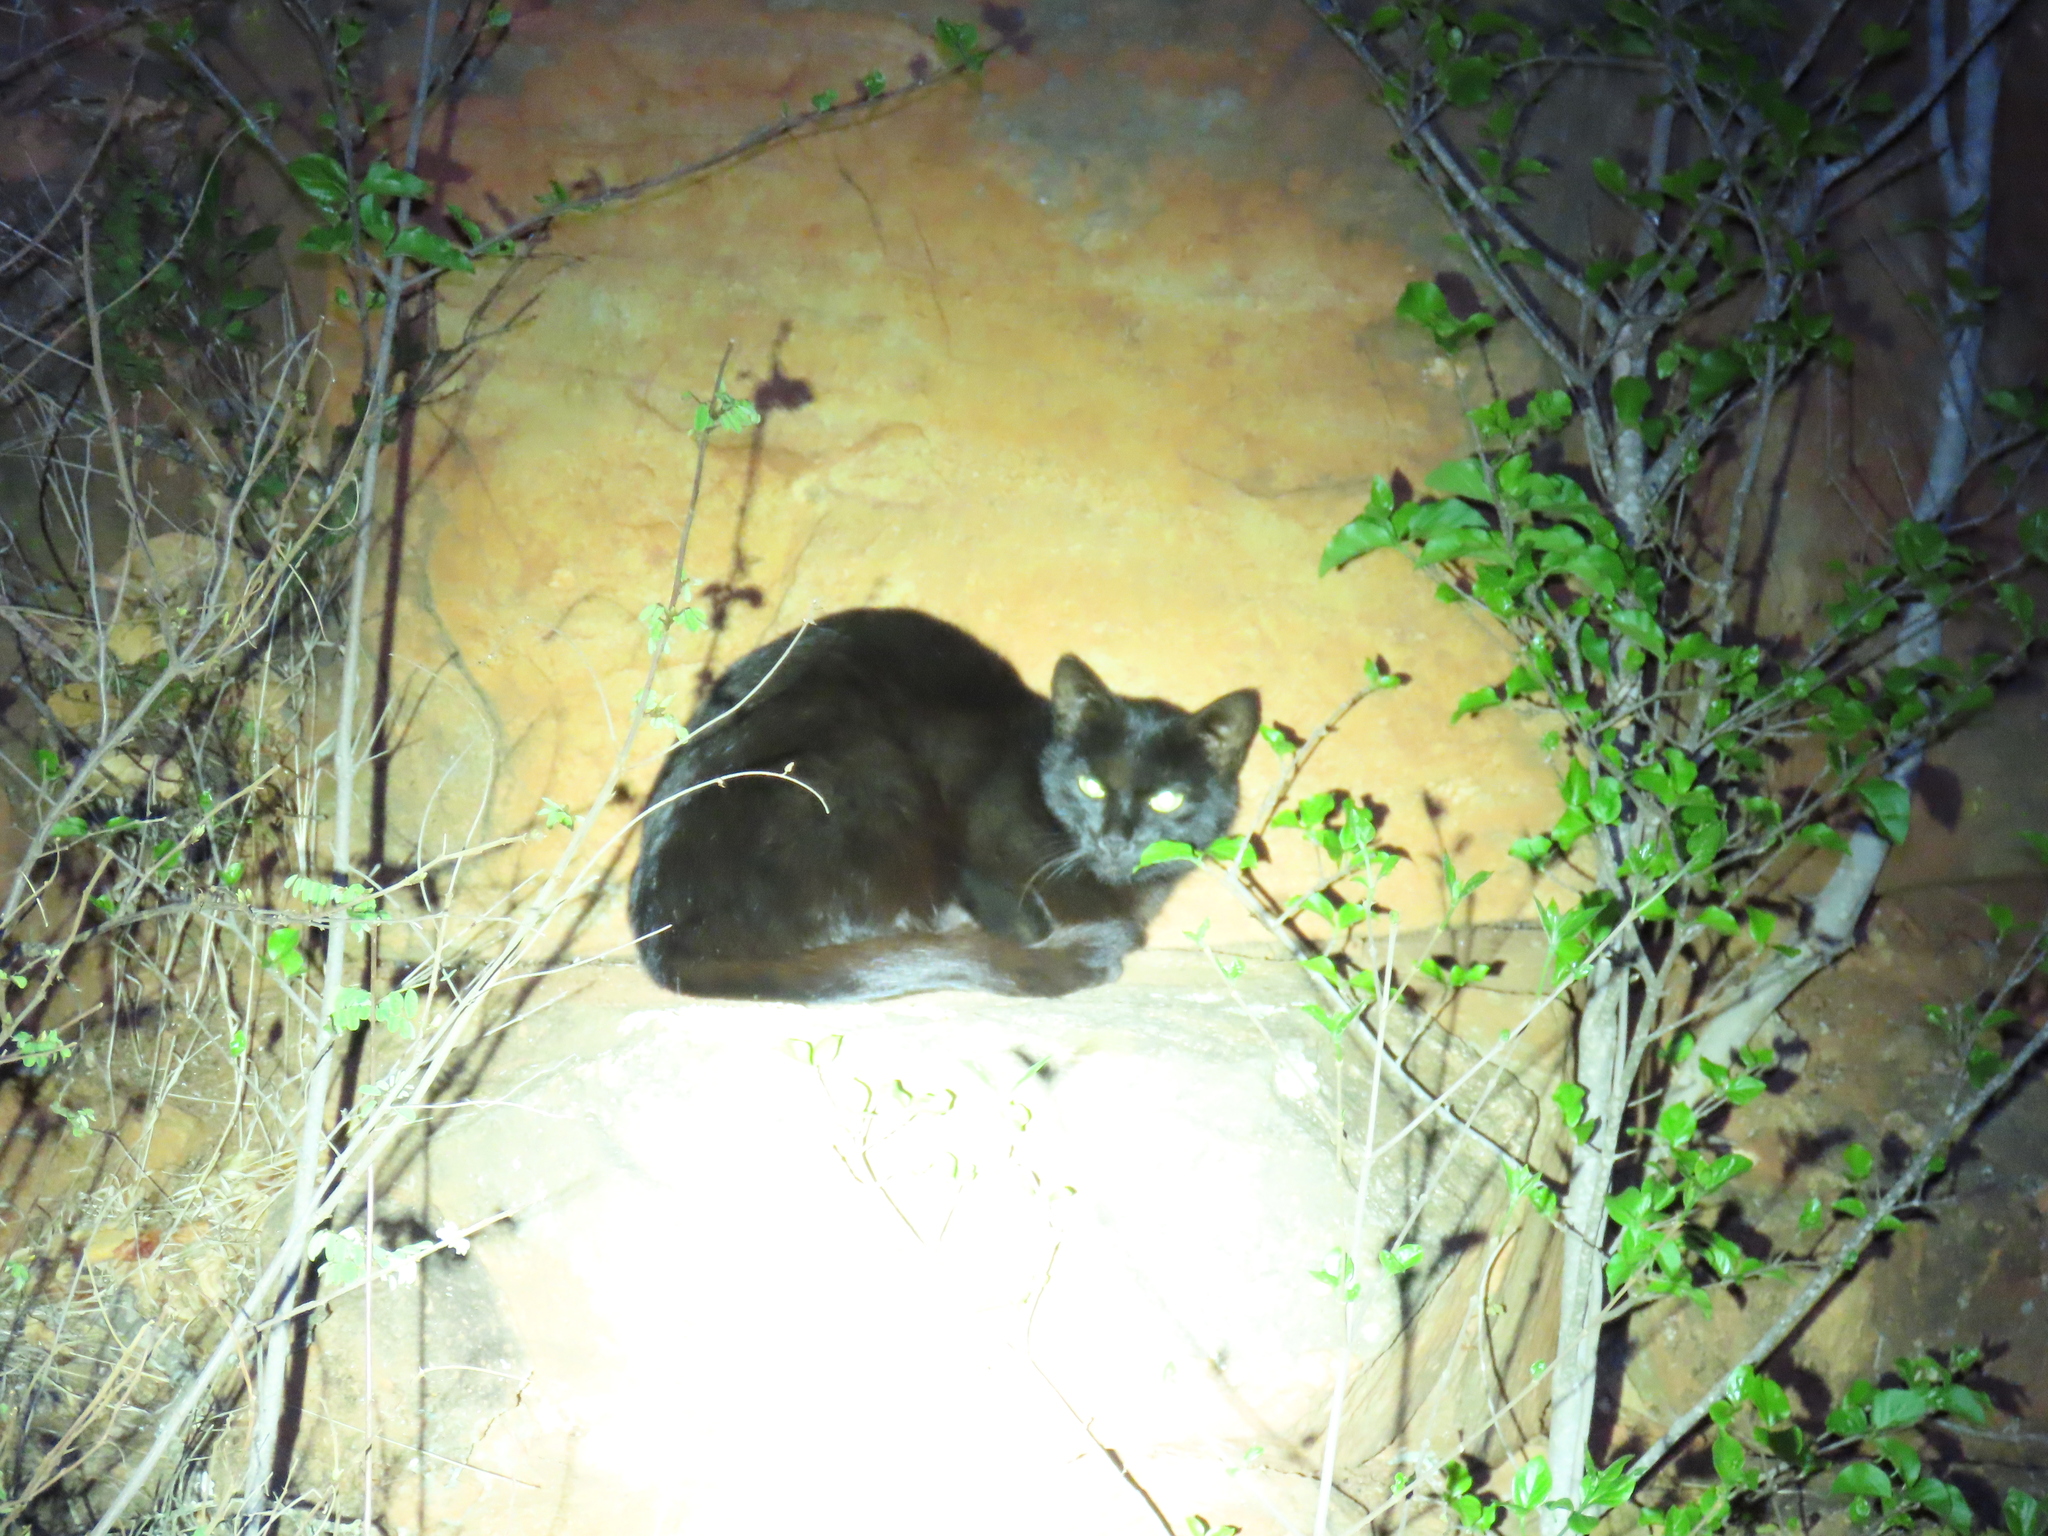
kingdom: Animalia
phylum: Chordata
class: Mammalia
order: Carnivora
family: Felidae
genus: Felis
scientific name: Felis catus
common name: Domestic cat
